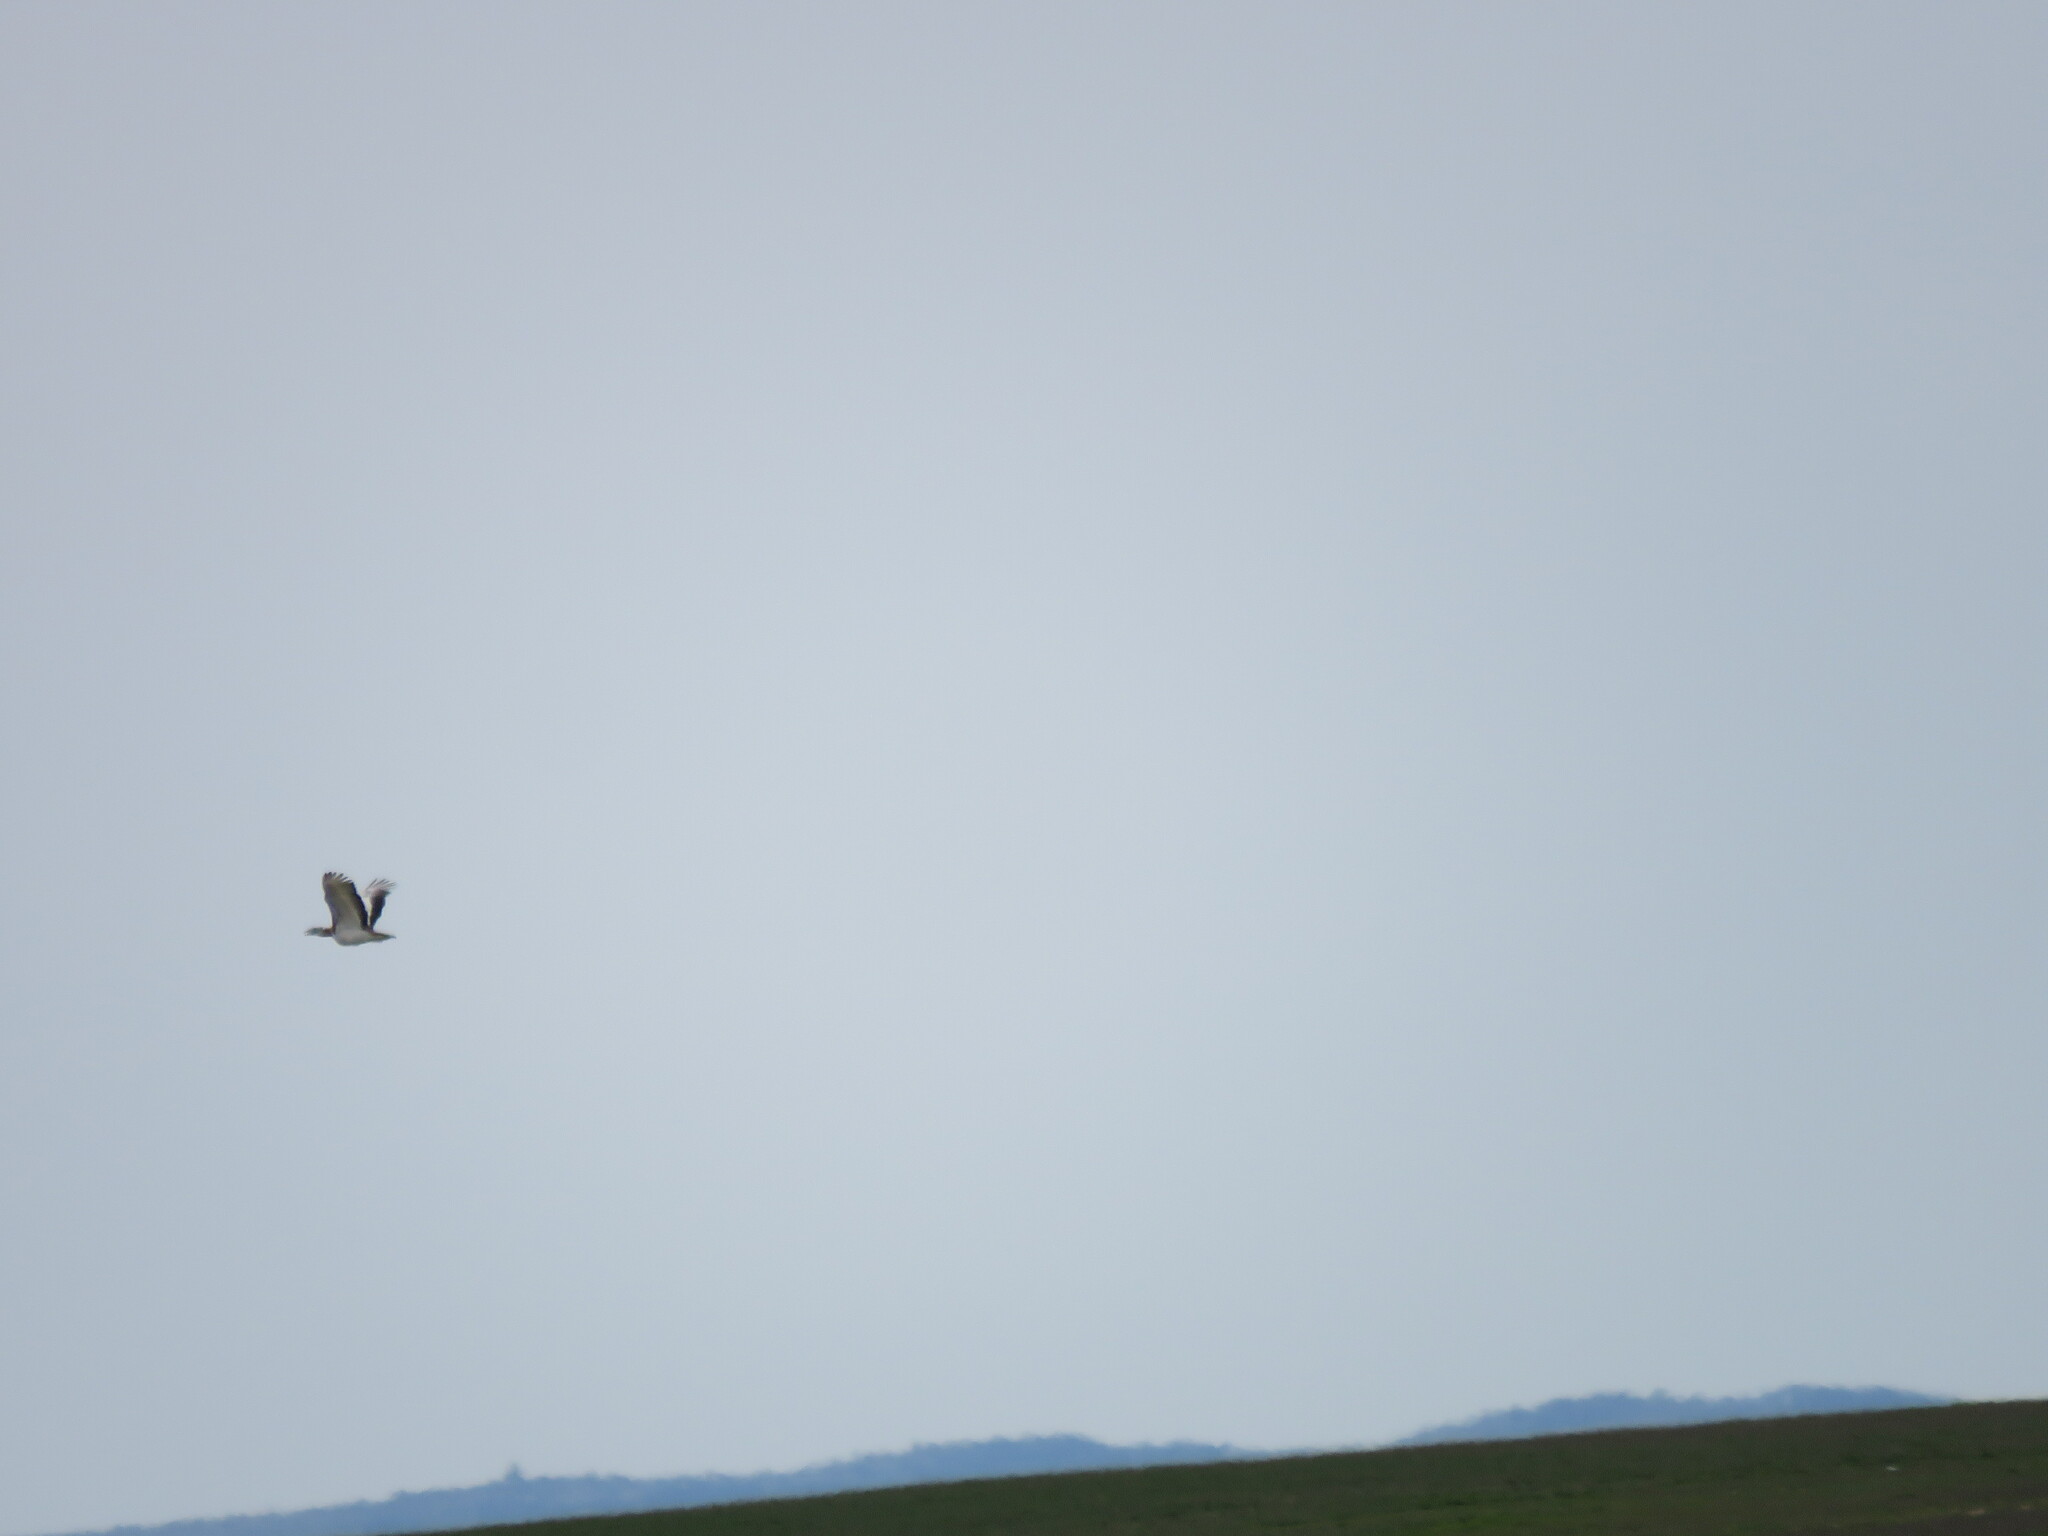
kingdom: Animalia
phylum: Chordata
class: Aves
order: Otidiformes
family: Otididae
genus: Otis
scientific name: Otis tarda
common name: Great bustard
